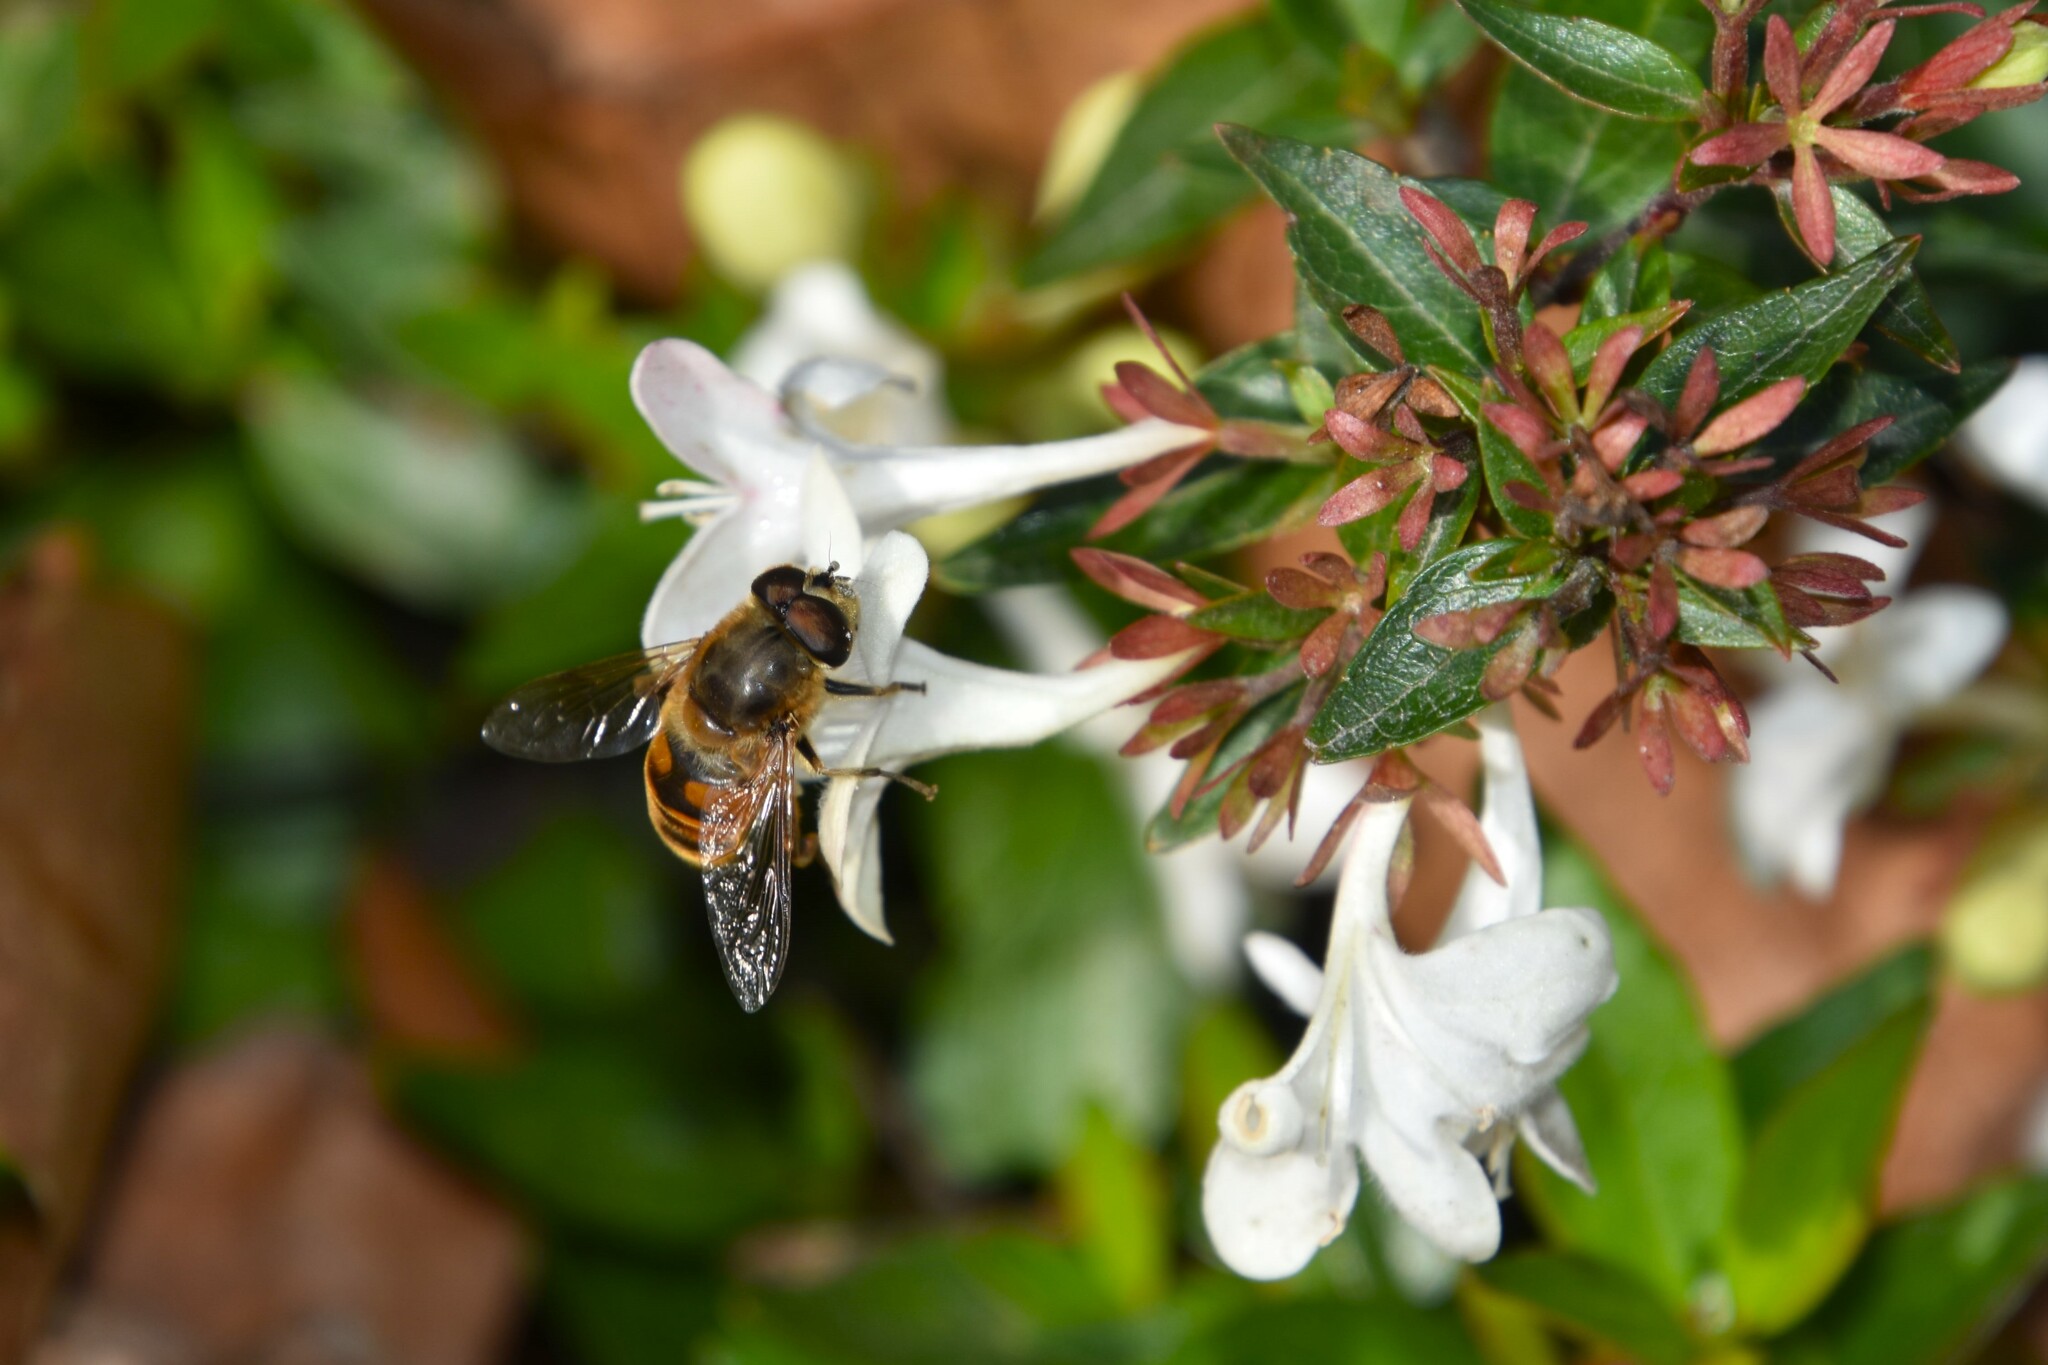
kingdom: Animalia
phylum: Arthropoda
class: Insecta
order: Diptera
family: Syrphidae
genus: Eristalis
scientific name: Eristalis tenax
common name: Drone fly
